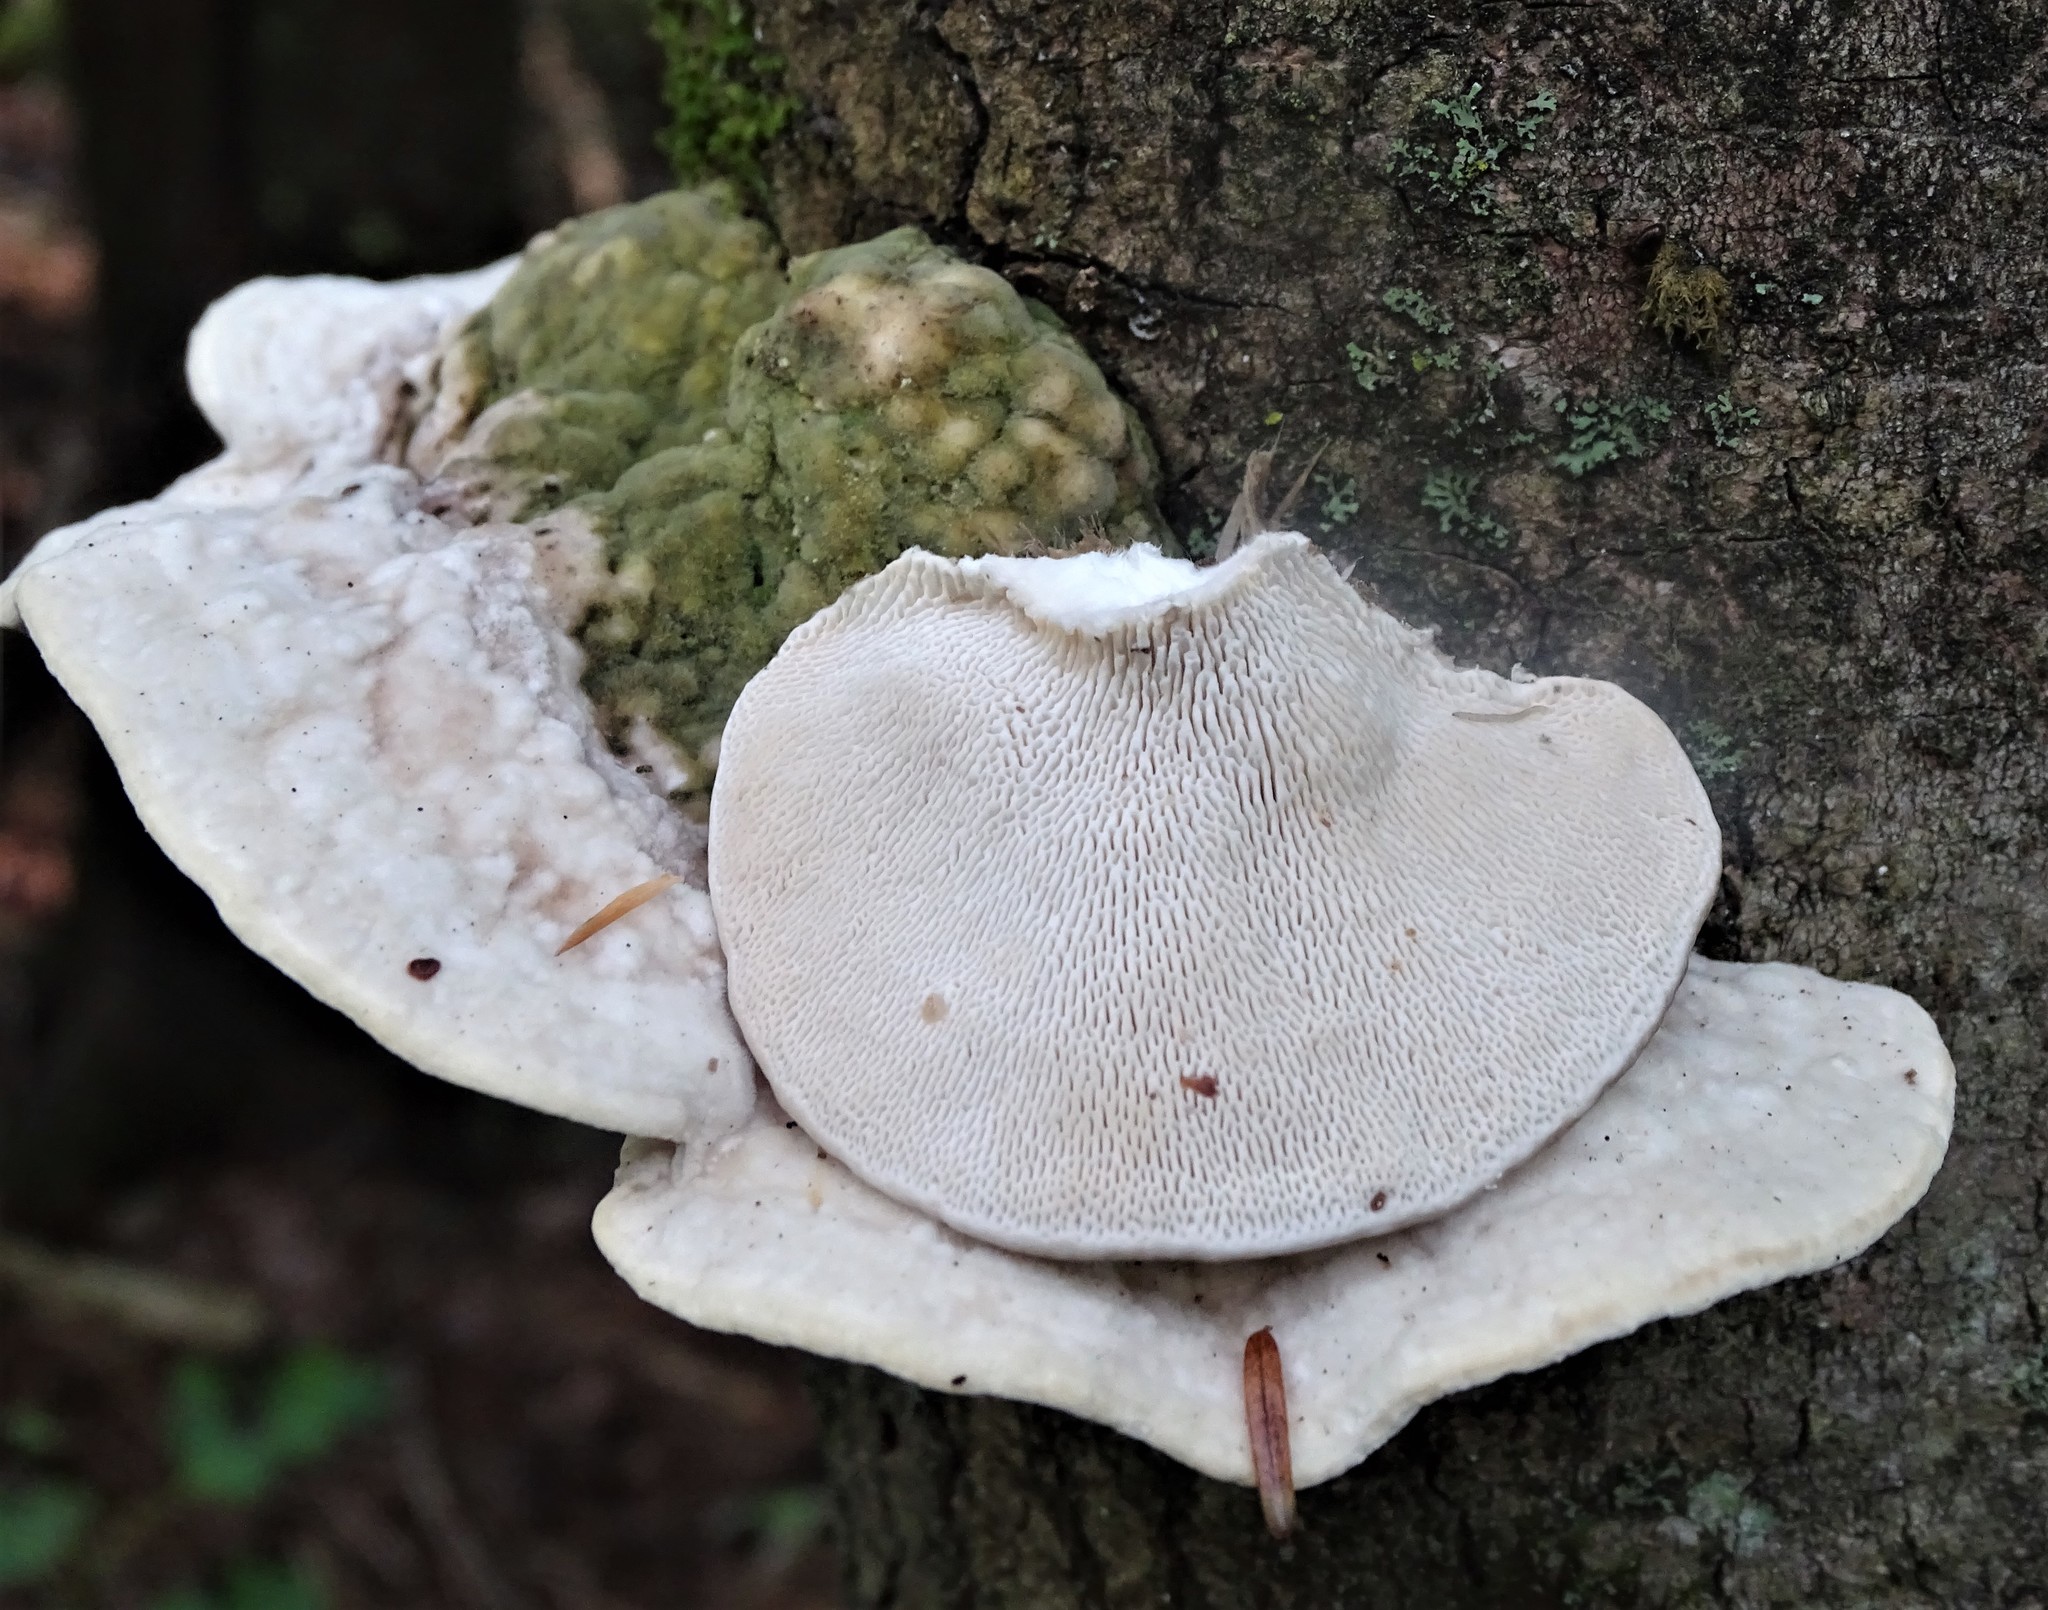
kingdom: Fungi
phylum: Basidiomycota
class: Agaricomycetes
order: Polyporales
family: Polyporaceae
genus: Trametes
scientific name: Trametes gibbosa
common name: Lumpy bracket
